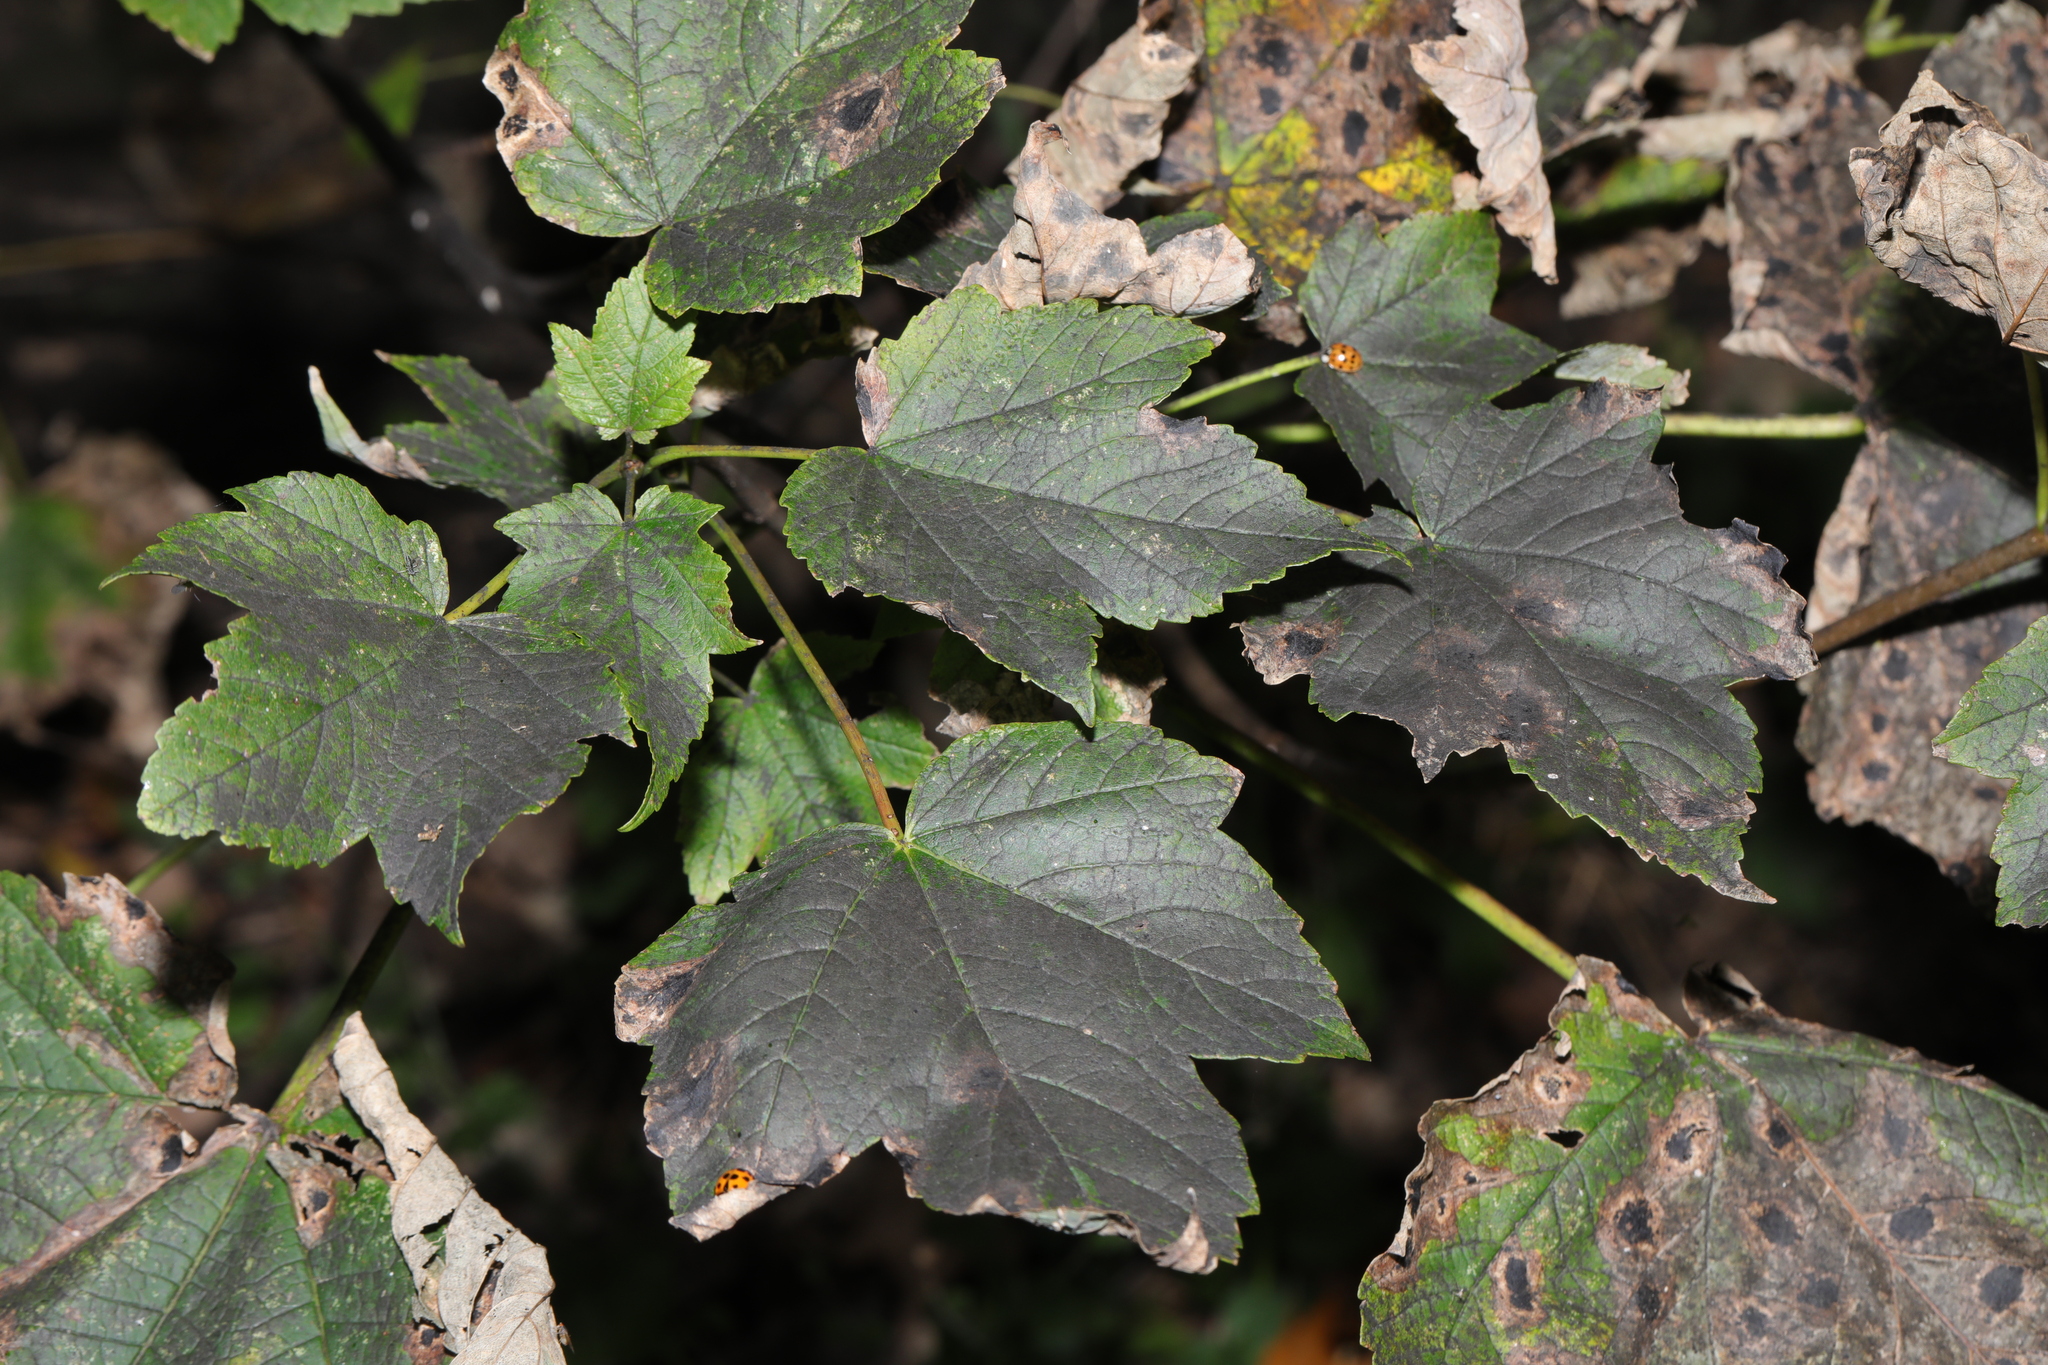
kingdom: Plantae
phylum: Tracheophyta
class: Magnoliopsida
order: Sapindales
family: Sapindaceae
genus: Acer
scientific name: Acer pseudoplatanus
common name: Sycamore
